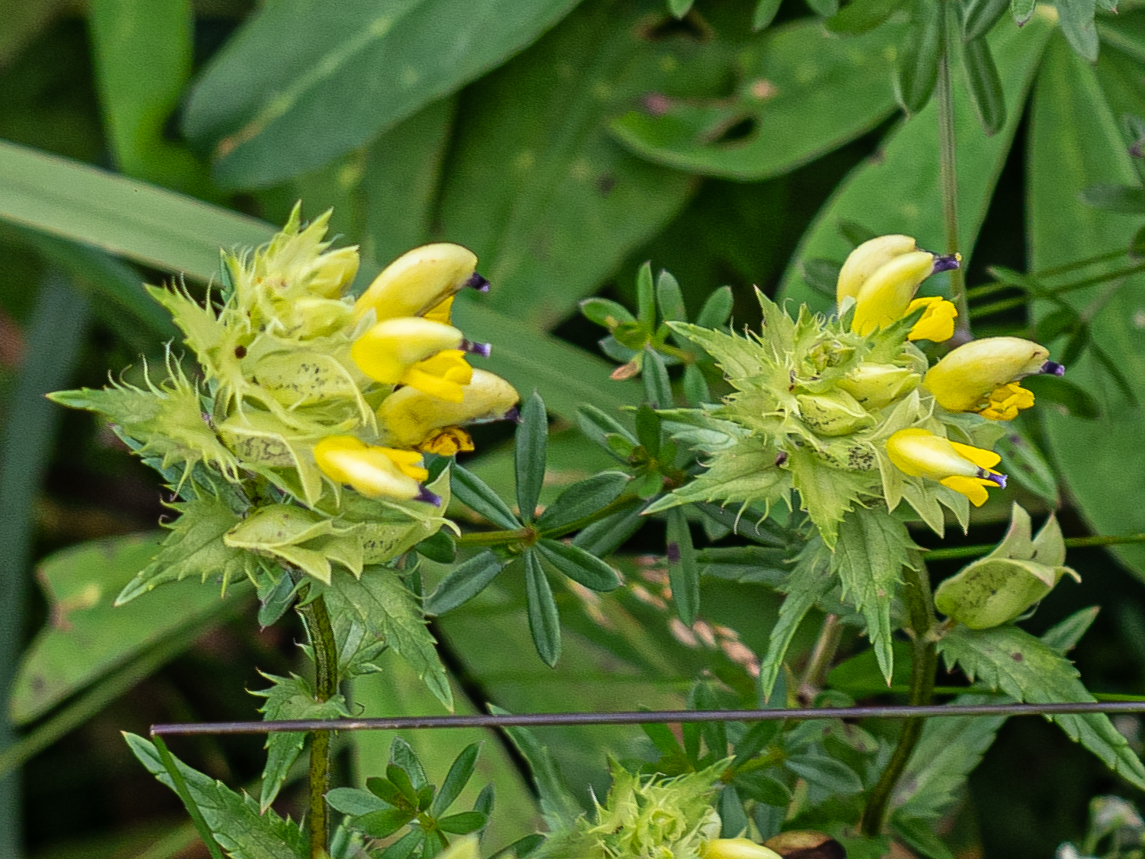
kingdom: Plantae
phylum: Tracheophyta
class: Magnoliopsida
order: Lamiales
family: Orobanchaceae
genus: Rhinanthus
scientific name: Rhinanthus glacialis
